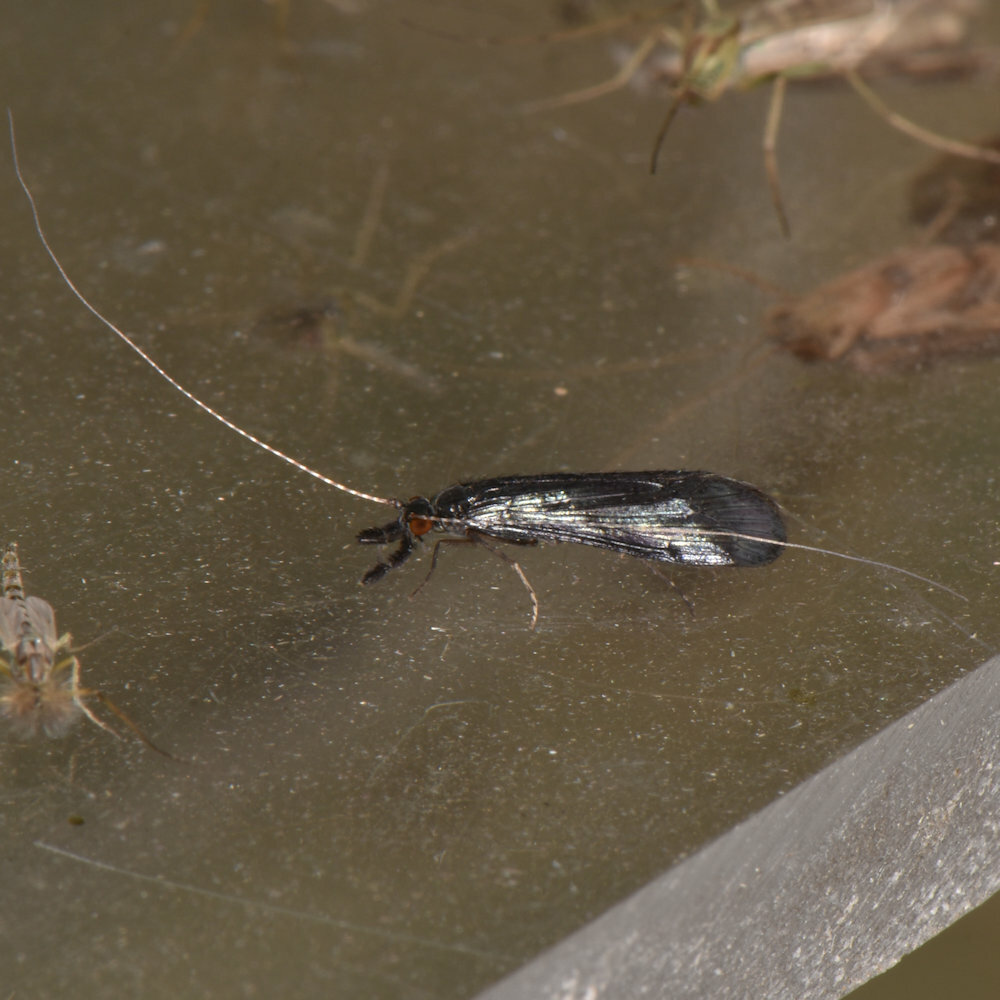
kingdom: Animalia
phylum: Arthropoda
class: Insecta
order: Trichoptera
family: Leptoceridae
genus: Mystacides
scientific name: Mystacides sepulchralis
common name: Black dancer caddisfly
